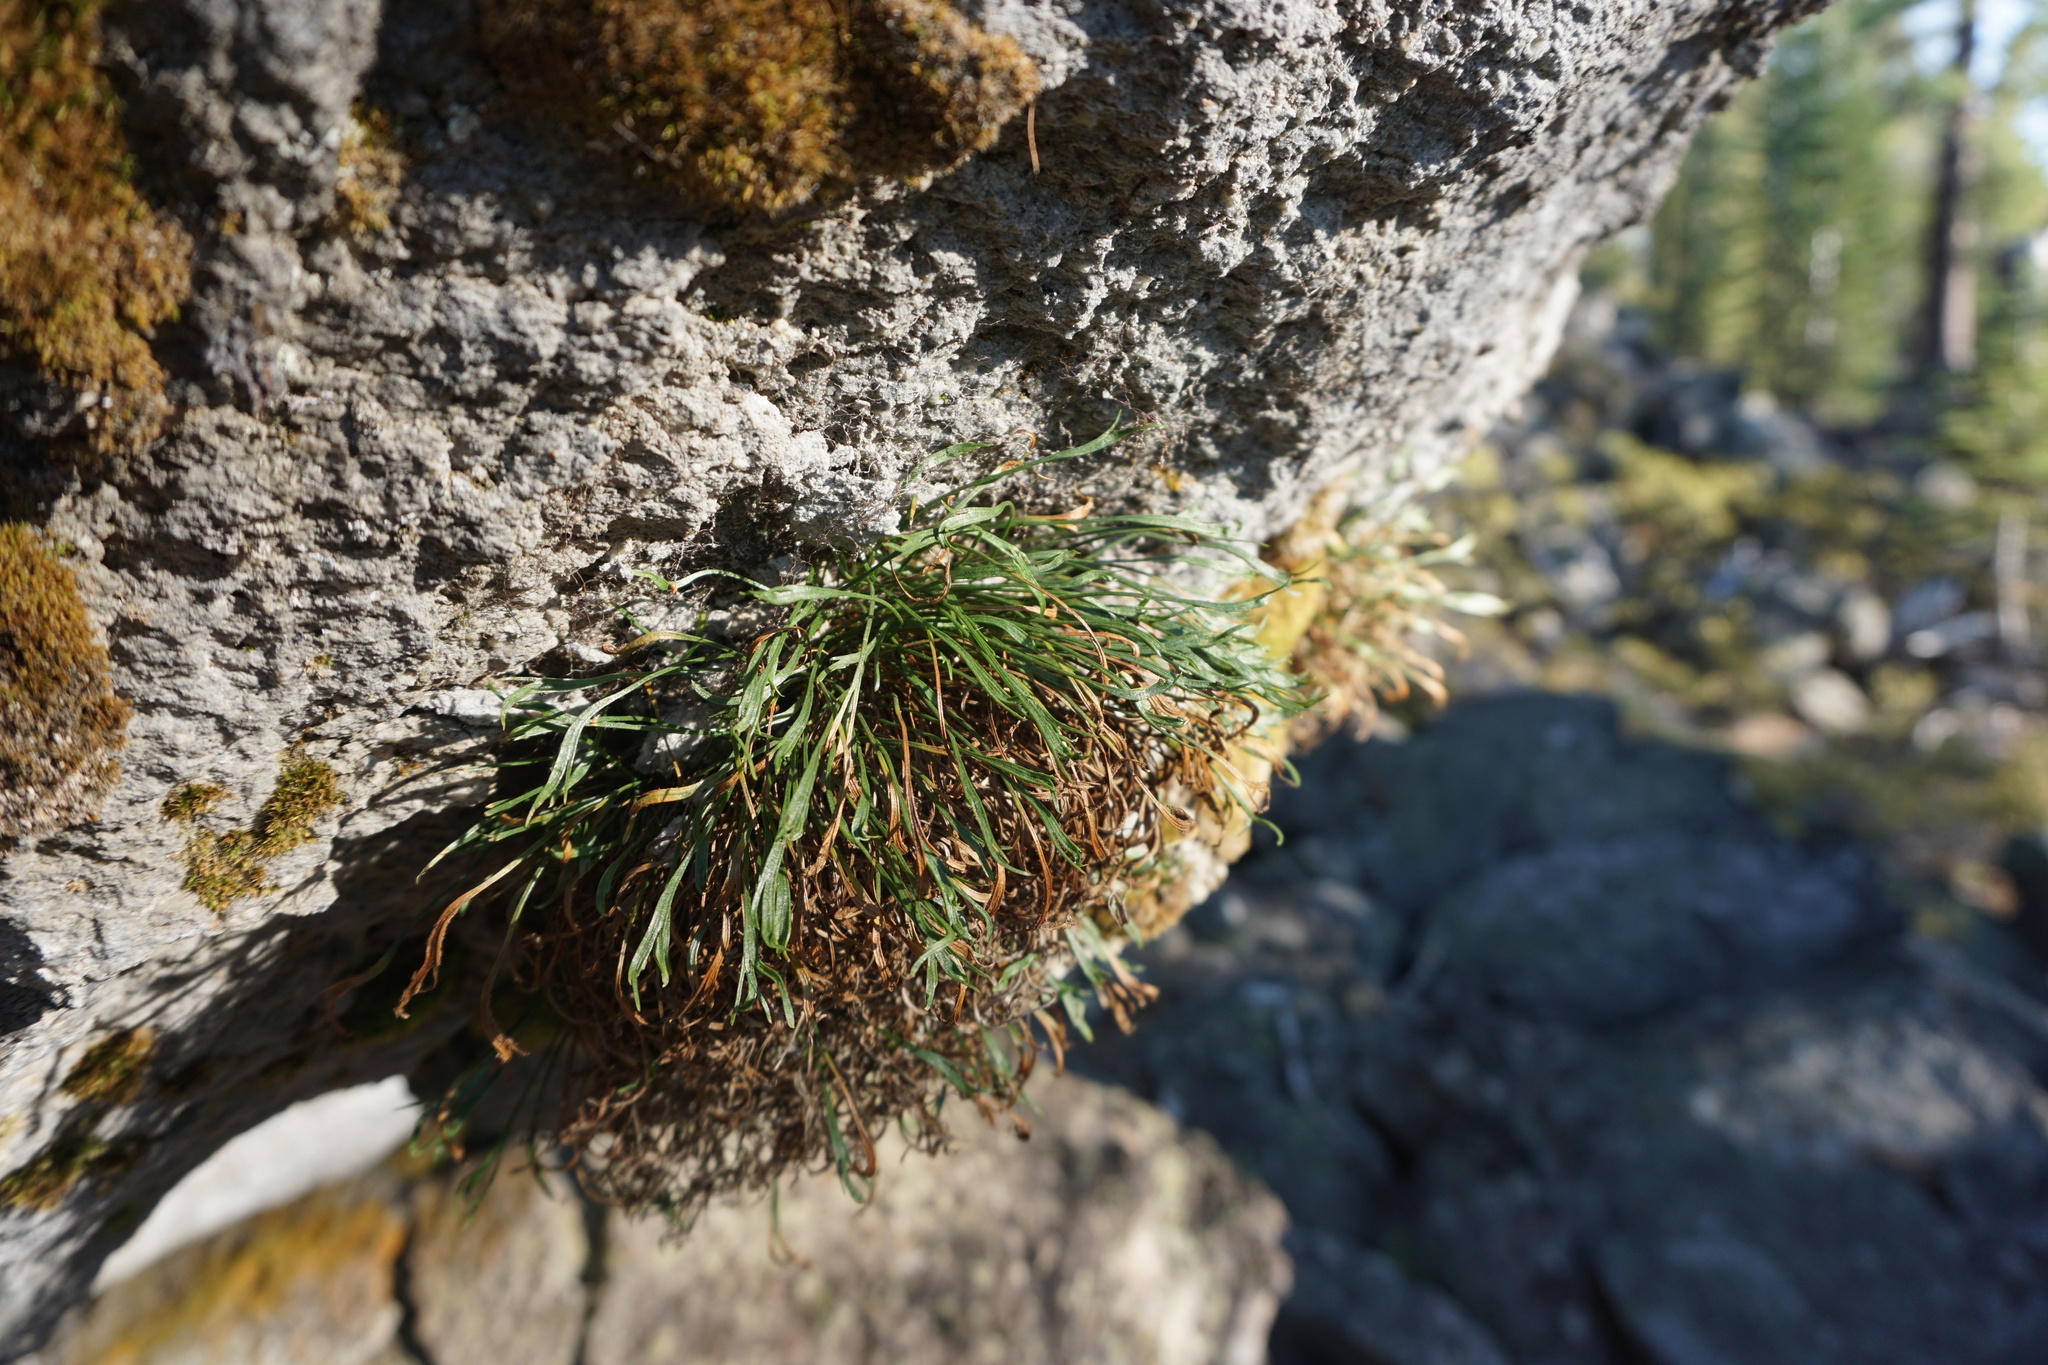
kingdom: Plantae
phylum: Tracheophyta
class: Polypodiopsida
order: Polypodiales
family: Aspleniaceae
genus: Asplenium
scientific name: Asplenium septentrionale
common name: Forked spleenwort
